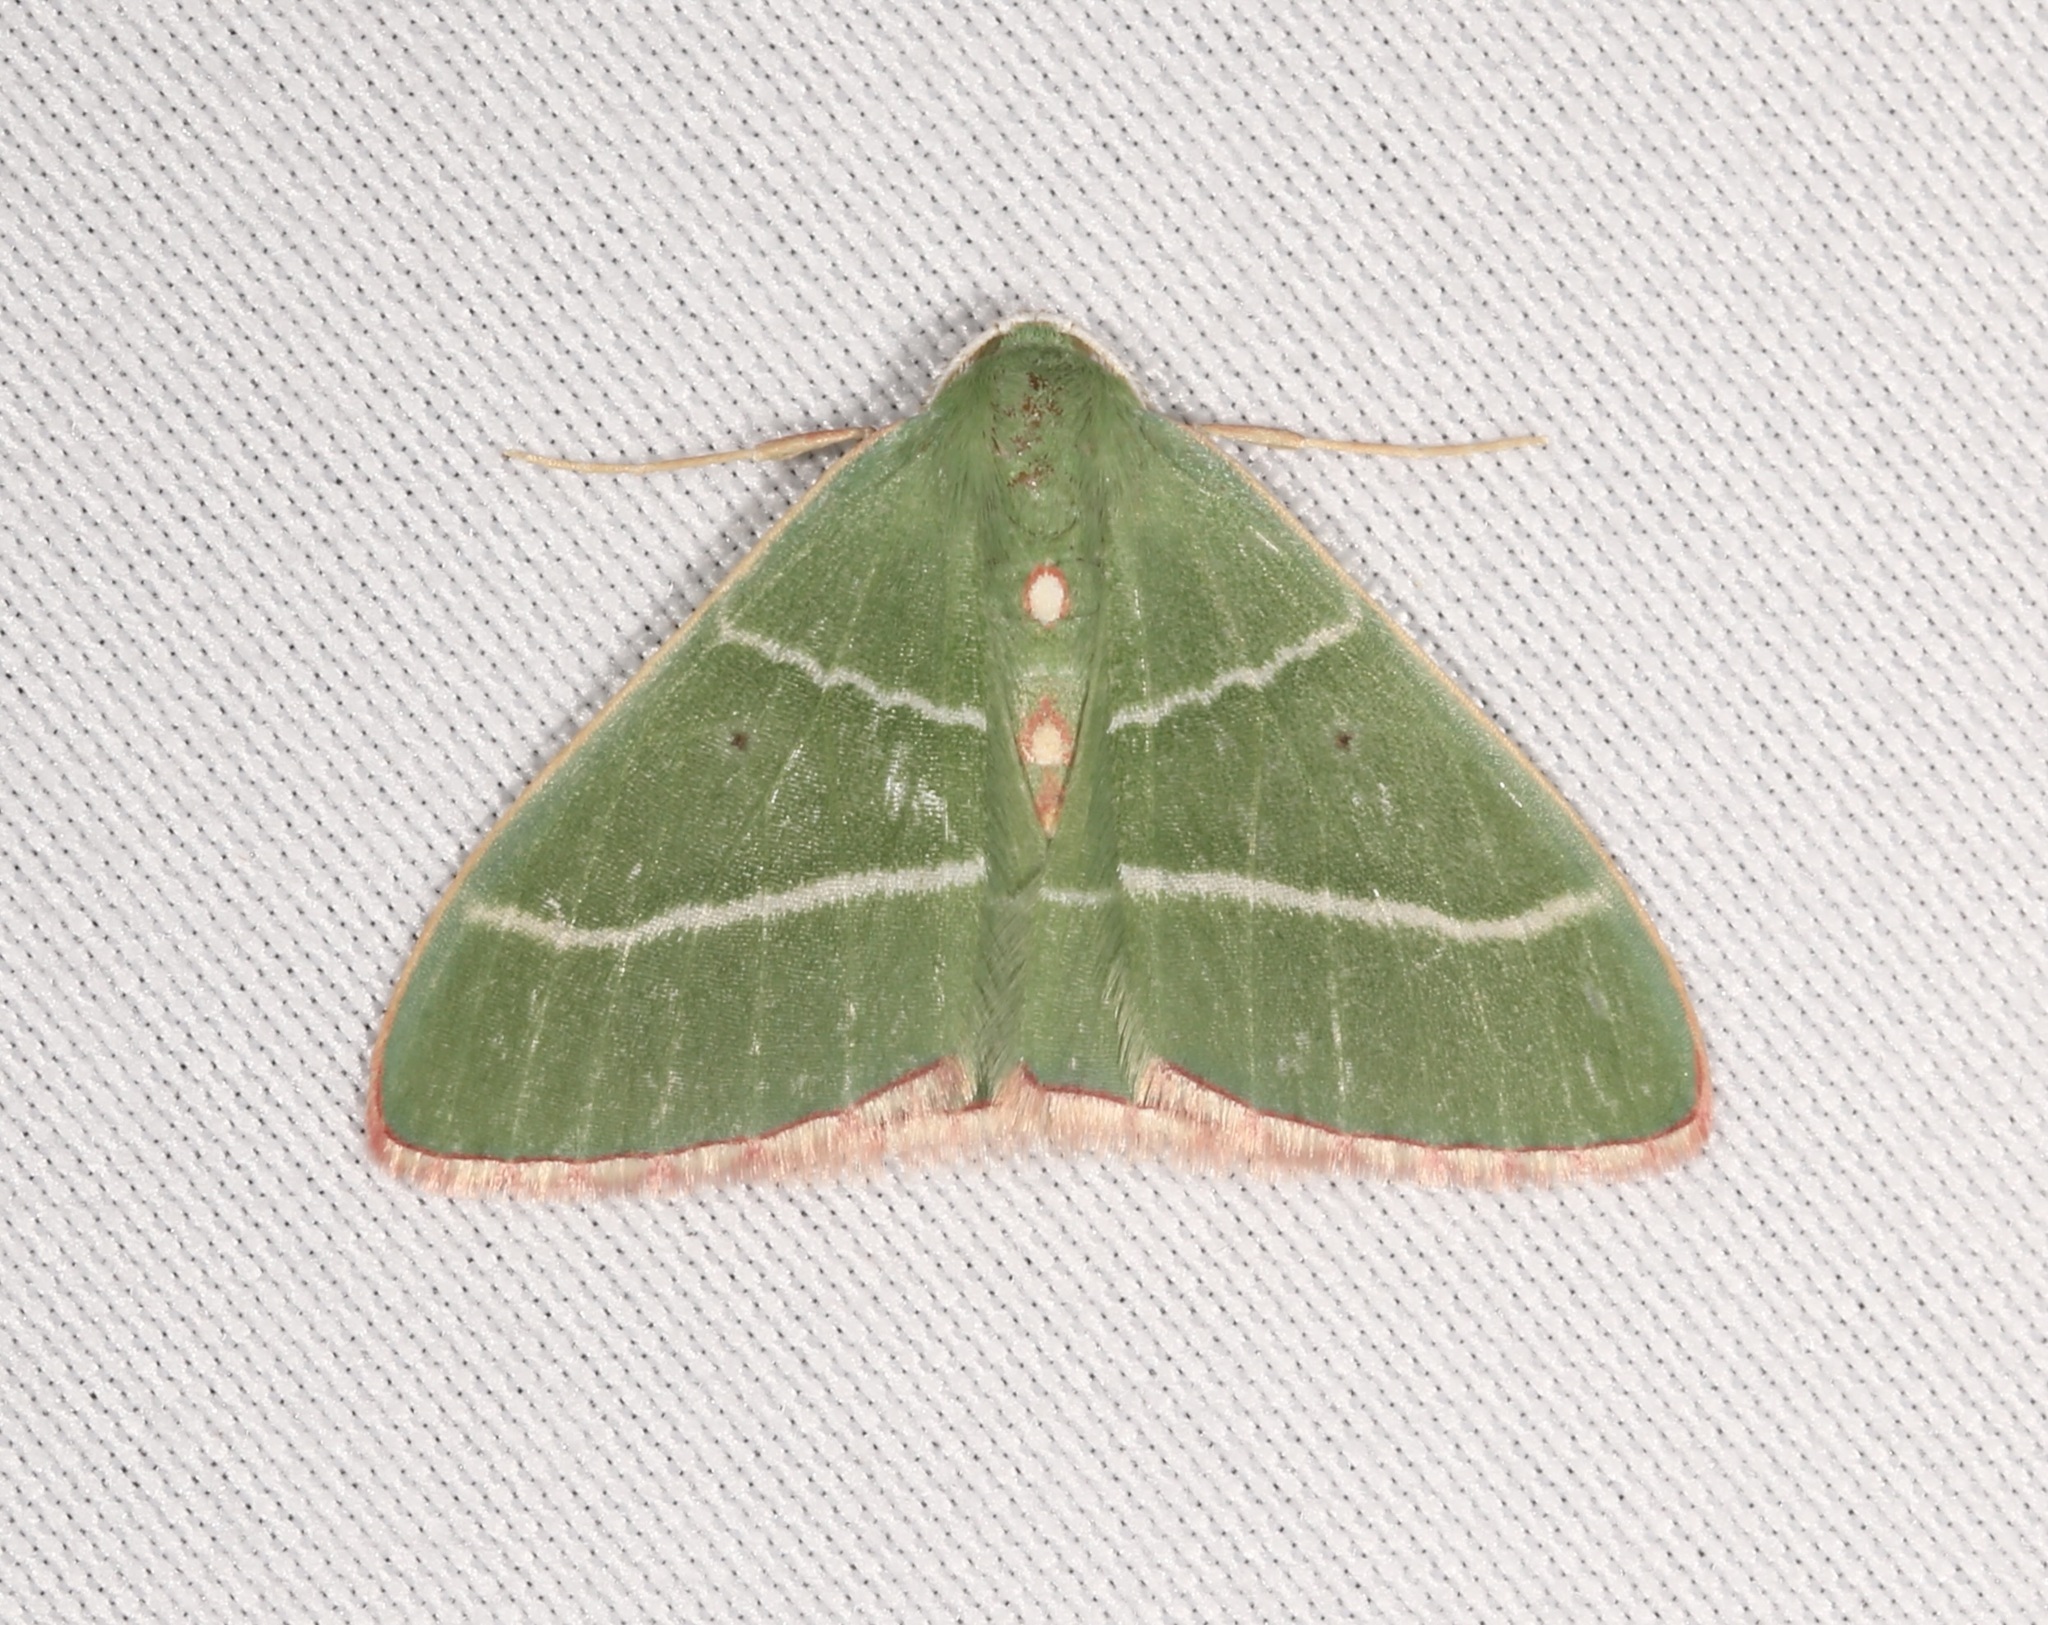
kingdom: Animalia
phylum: Arthropoda
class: Insecta
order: Lepidoptera
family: Geometridae
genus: Nemoria
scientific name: Nemoria obliqua
